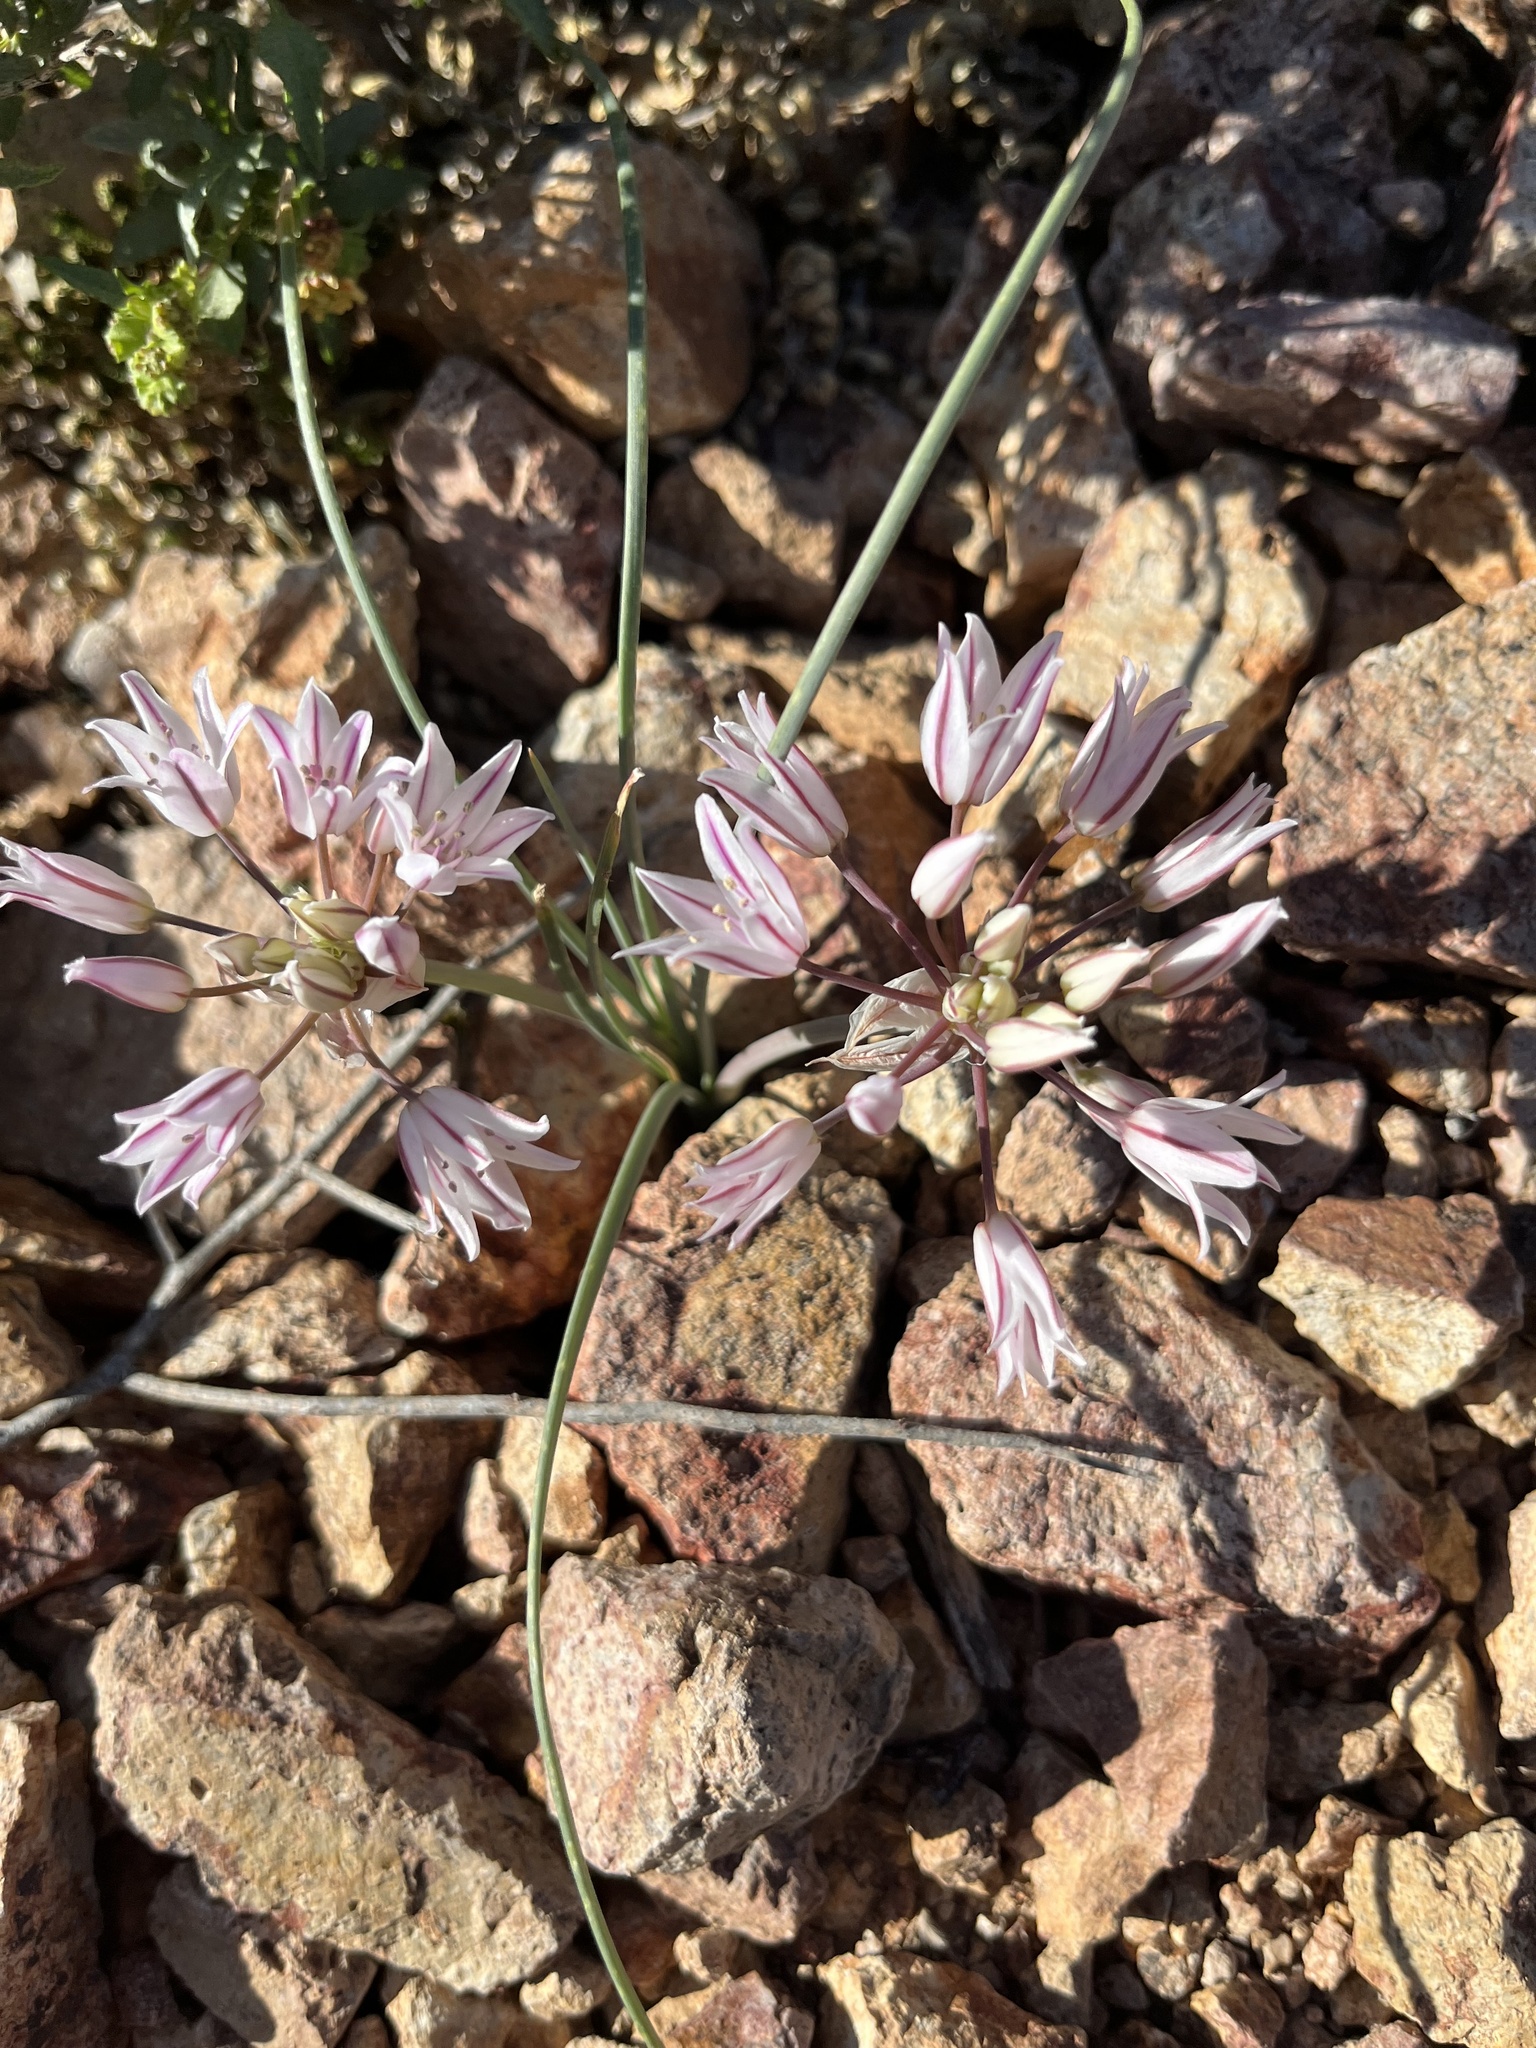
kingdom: Plantae
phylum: Tracheophyta
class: Liliopsida
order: Asparagales
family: Amaryllidaceae
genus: Allium
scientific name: Allium macropetalum
